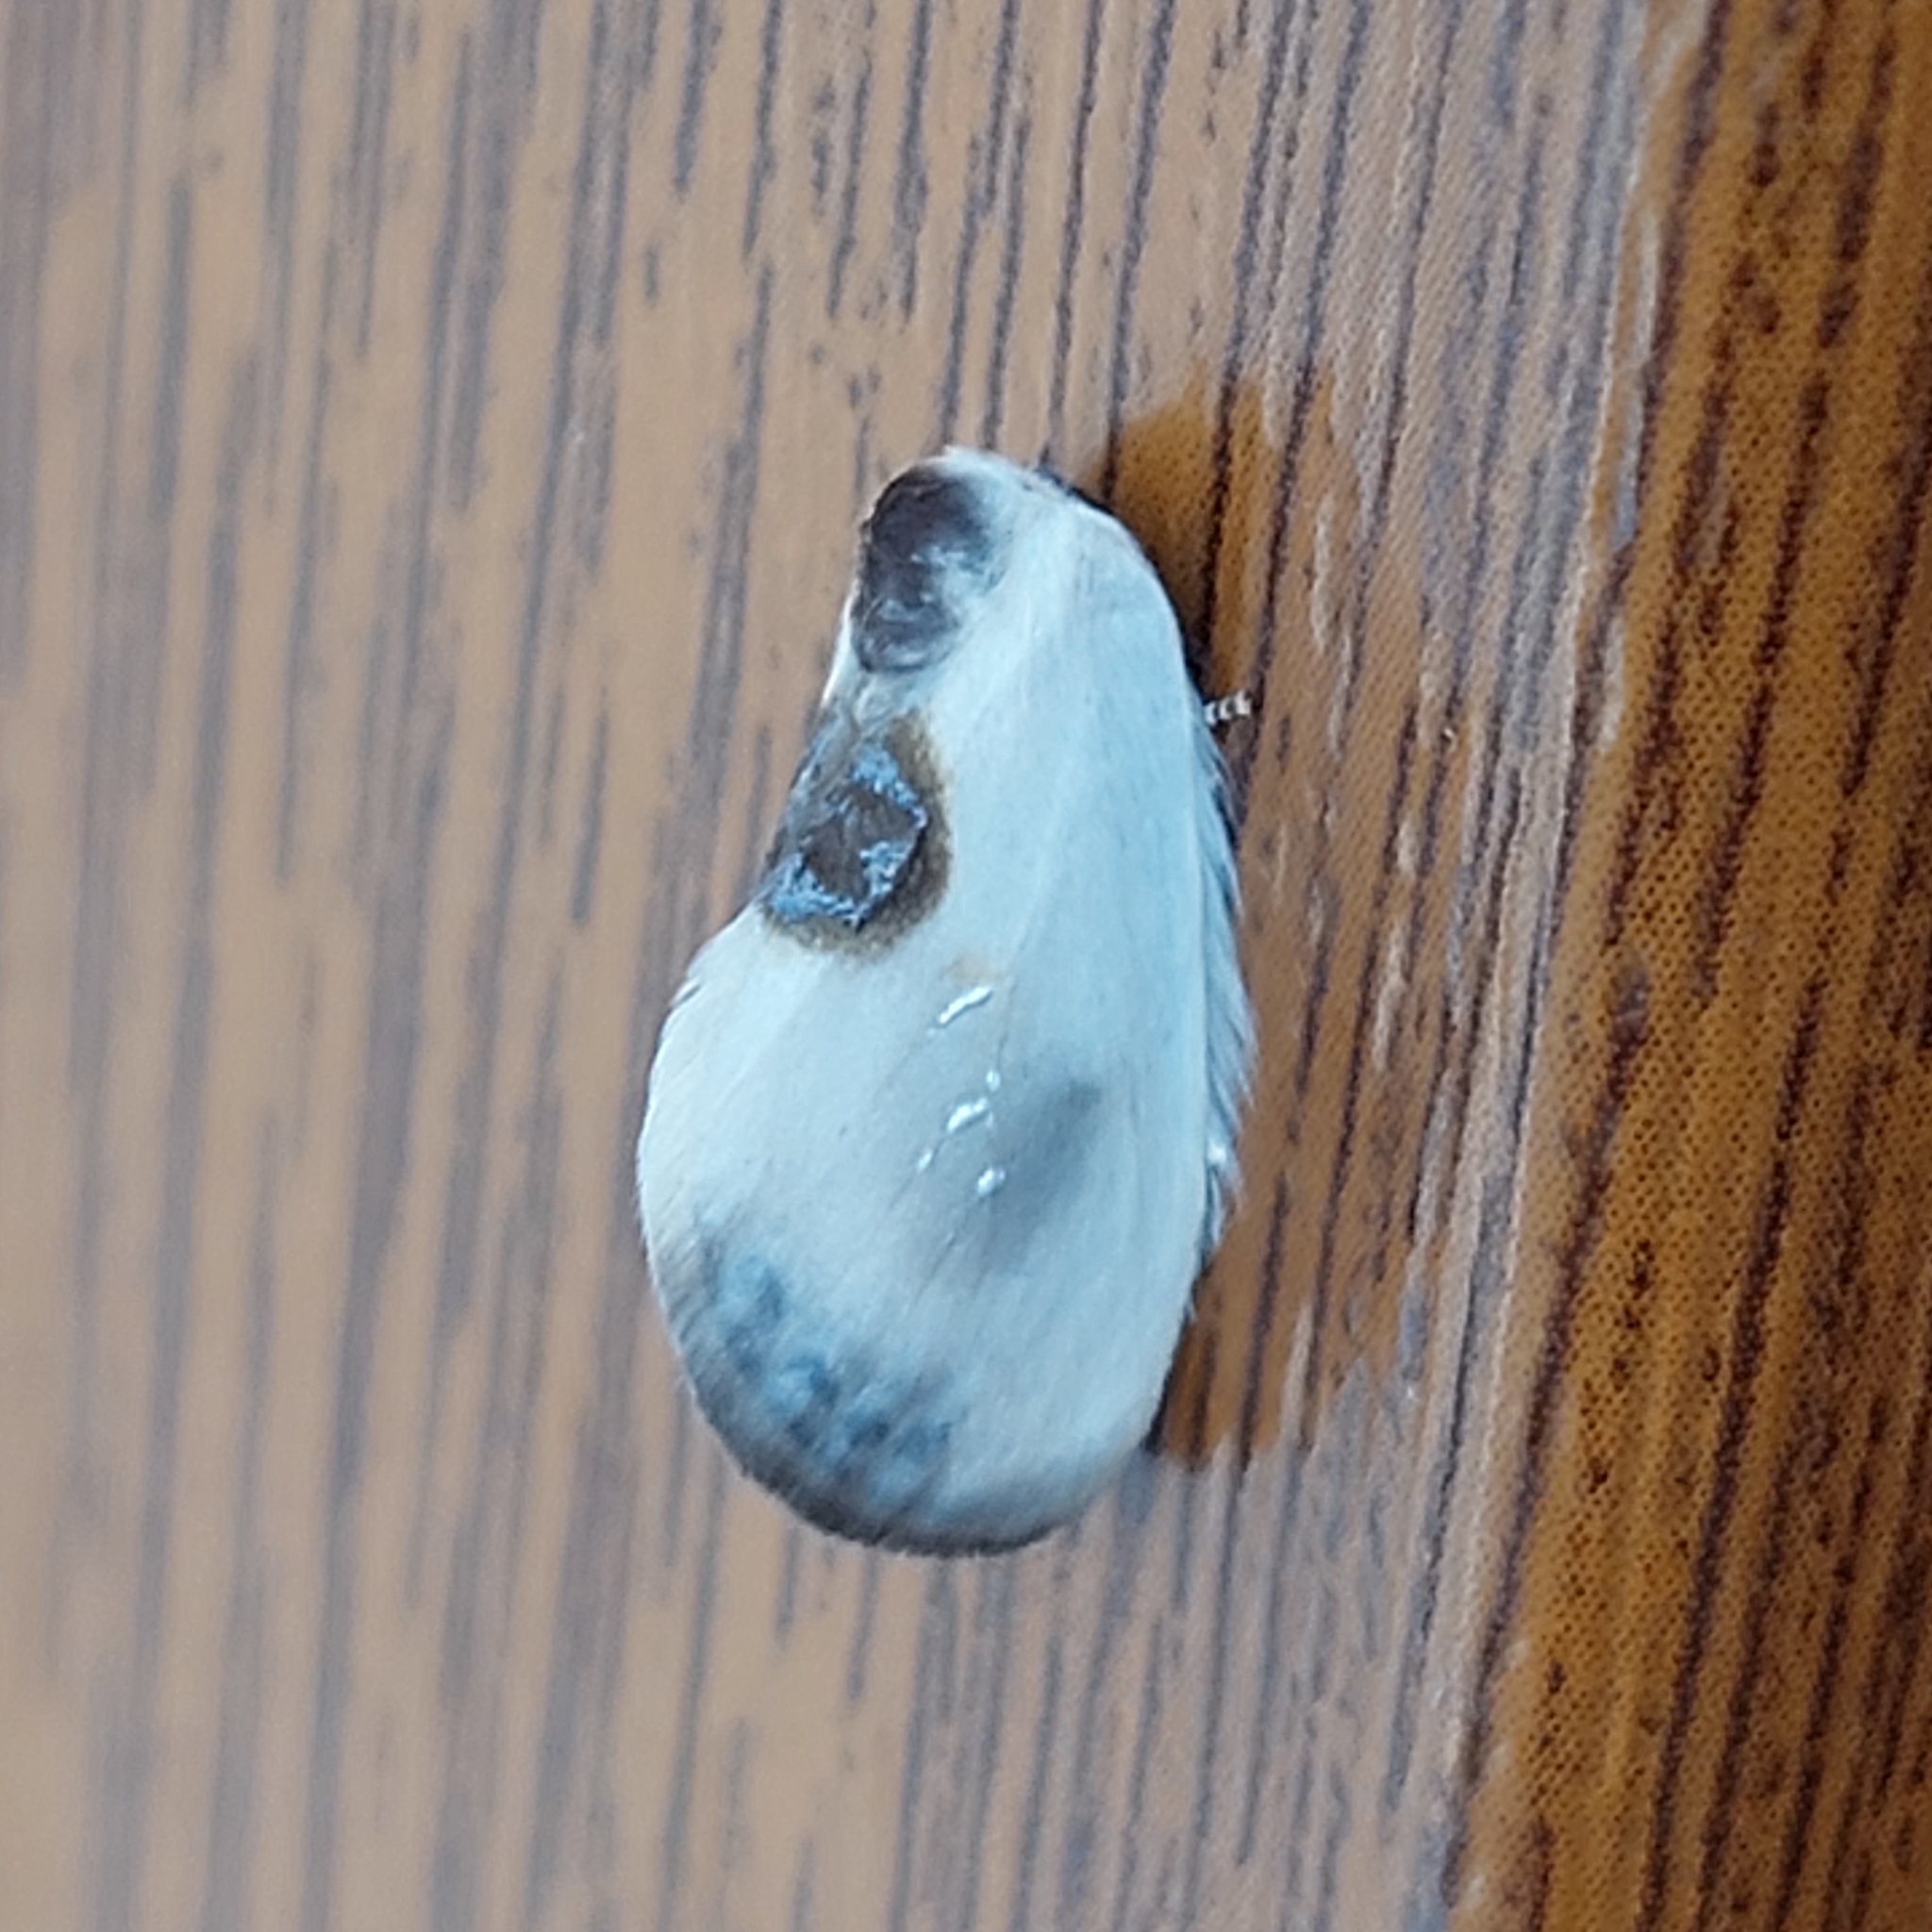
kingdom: Animalia
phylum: Arthropoda
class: Insecta
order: Lepidoptera
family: Drepanidae
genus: Cilix
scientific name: Cilix asiatica
